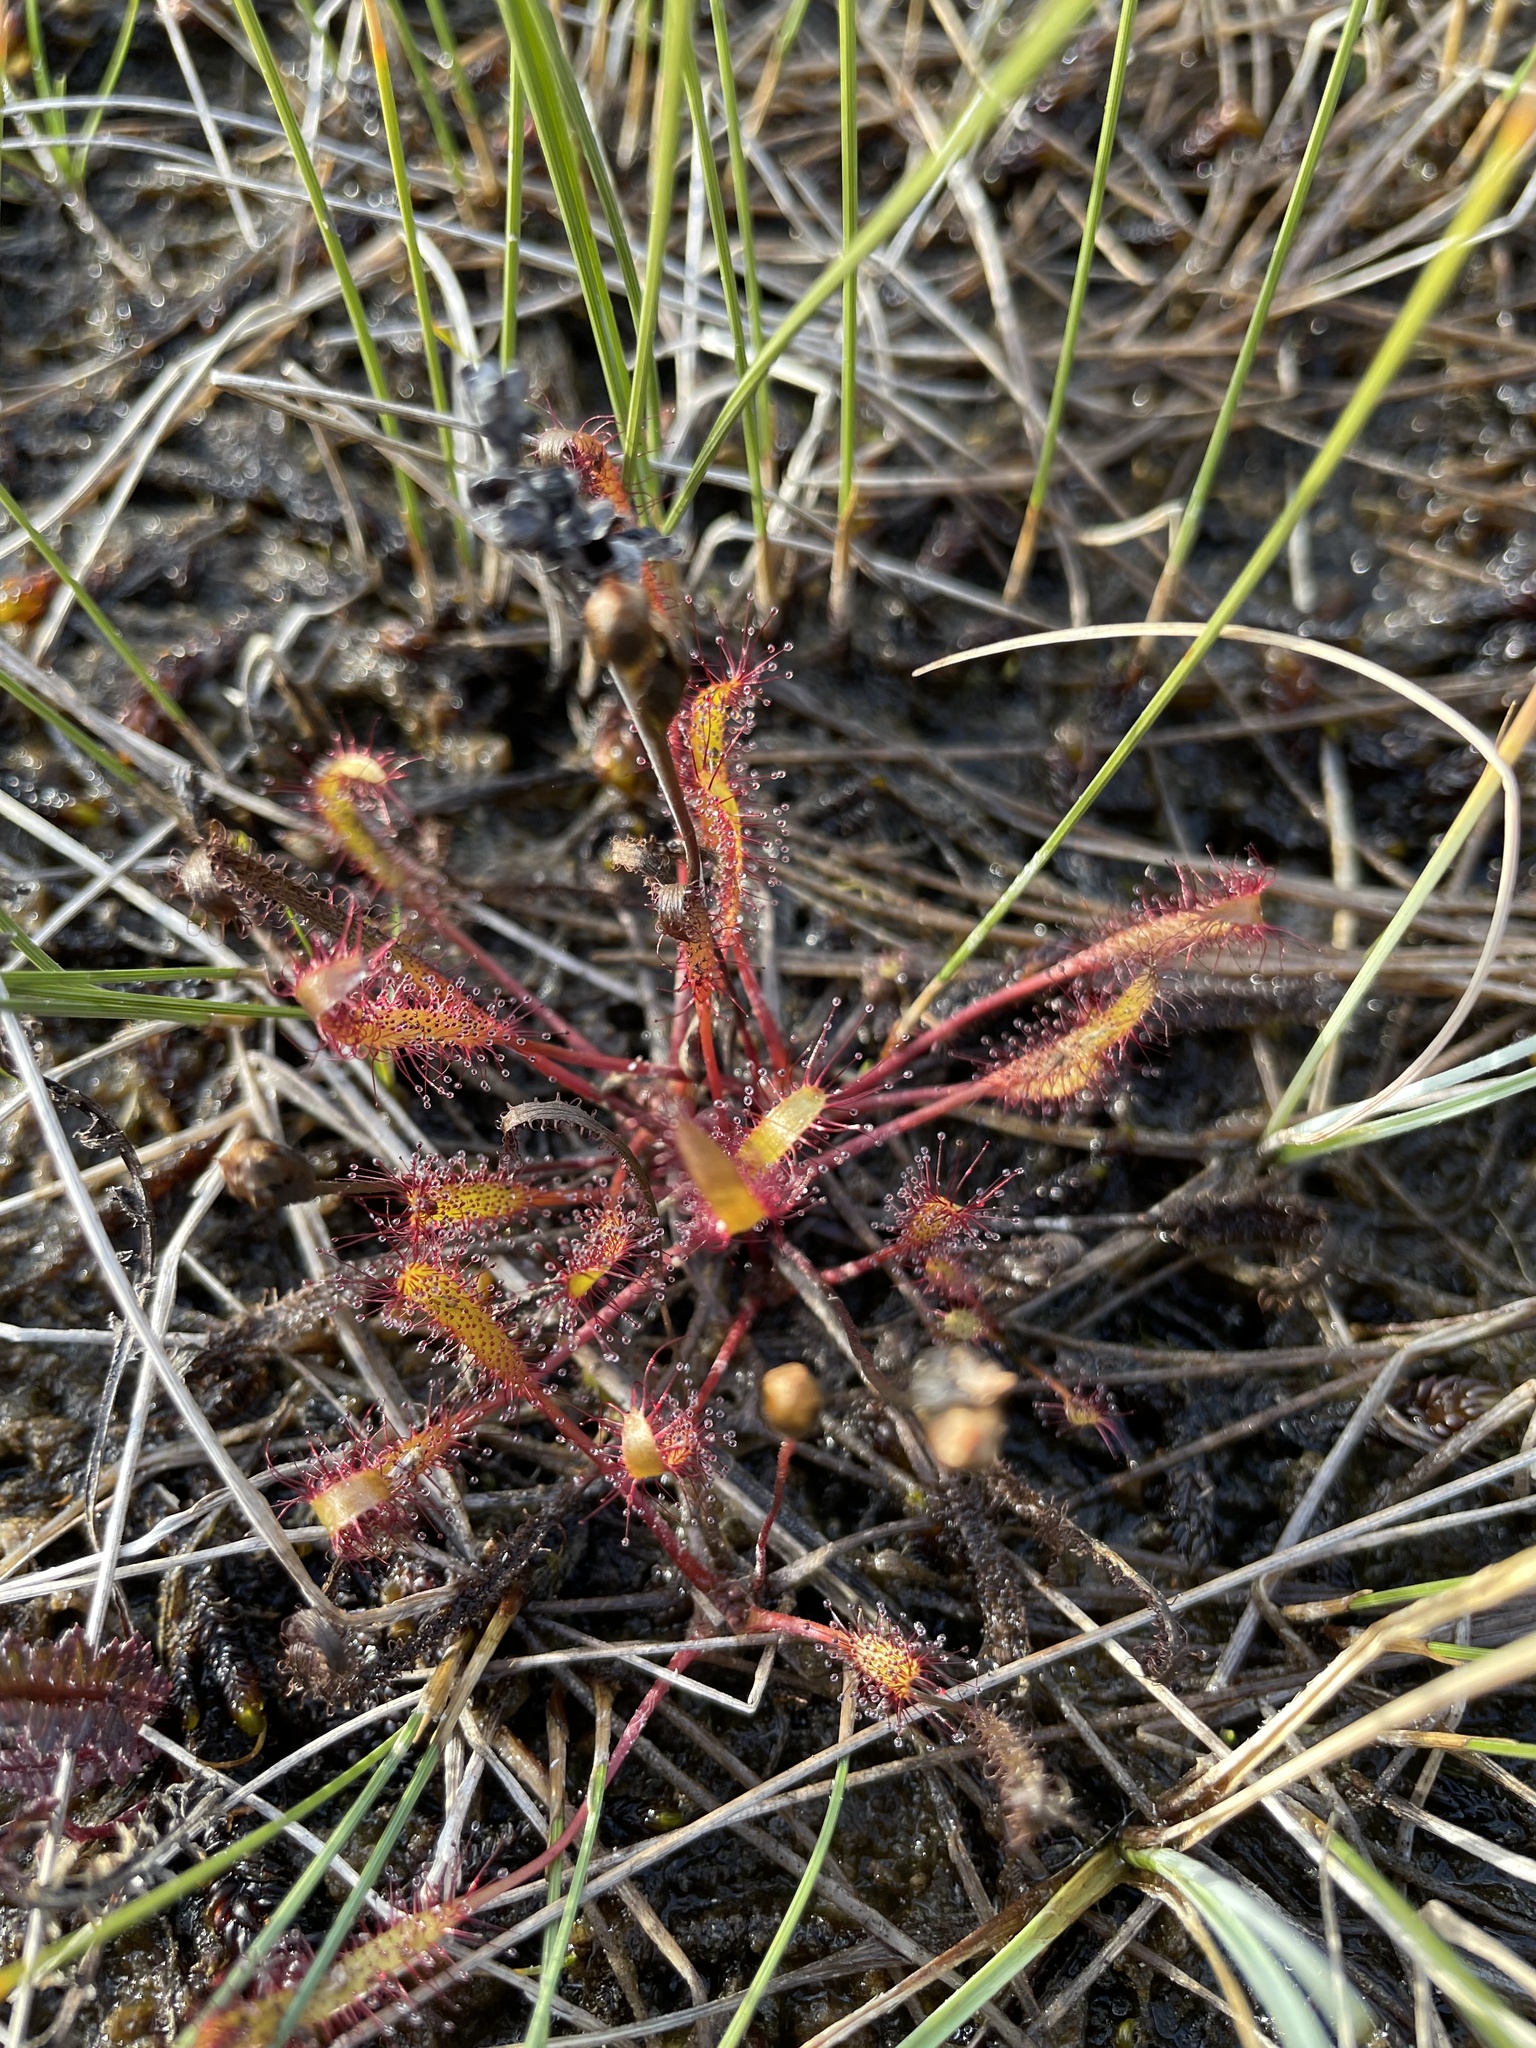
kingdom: Plantae
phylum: Tracheophyta
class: Magnoliopsida
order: Caryophyllales
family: Droseraceae
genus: Drosera
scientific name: Drosera linearis
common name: Linear-leaved sundew
